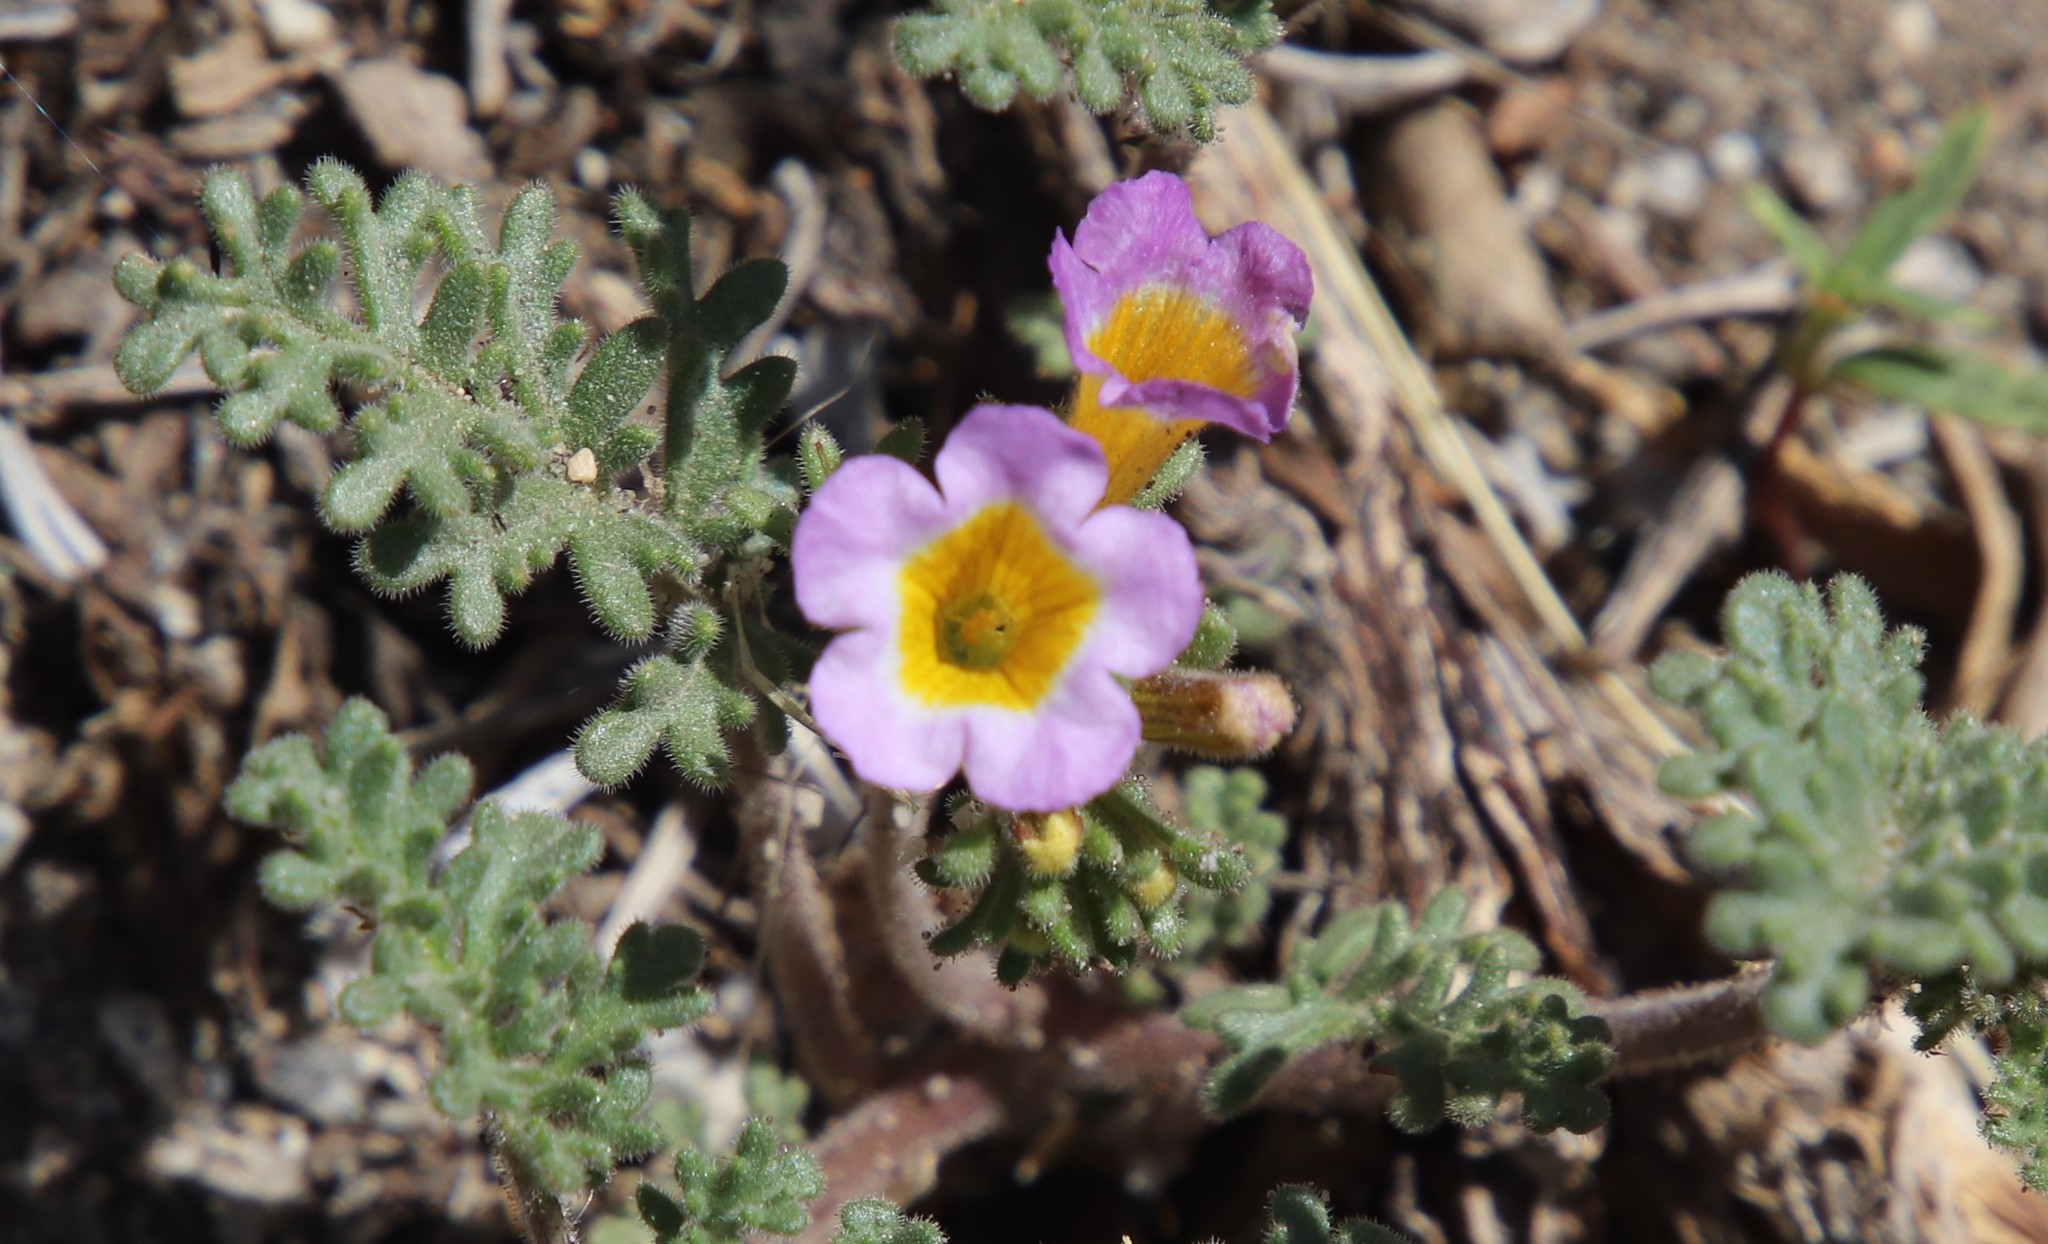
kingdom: Plantae
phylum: Tracheophyta
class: Magnoliopsida
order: Boraginales
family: Hydrophyllaceae
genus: Phacelia
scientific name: Phacelia bicolor
